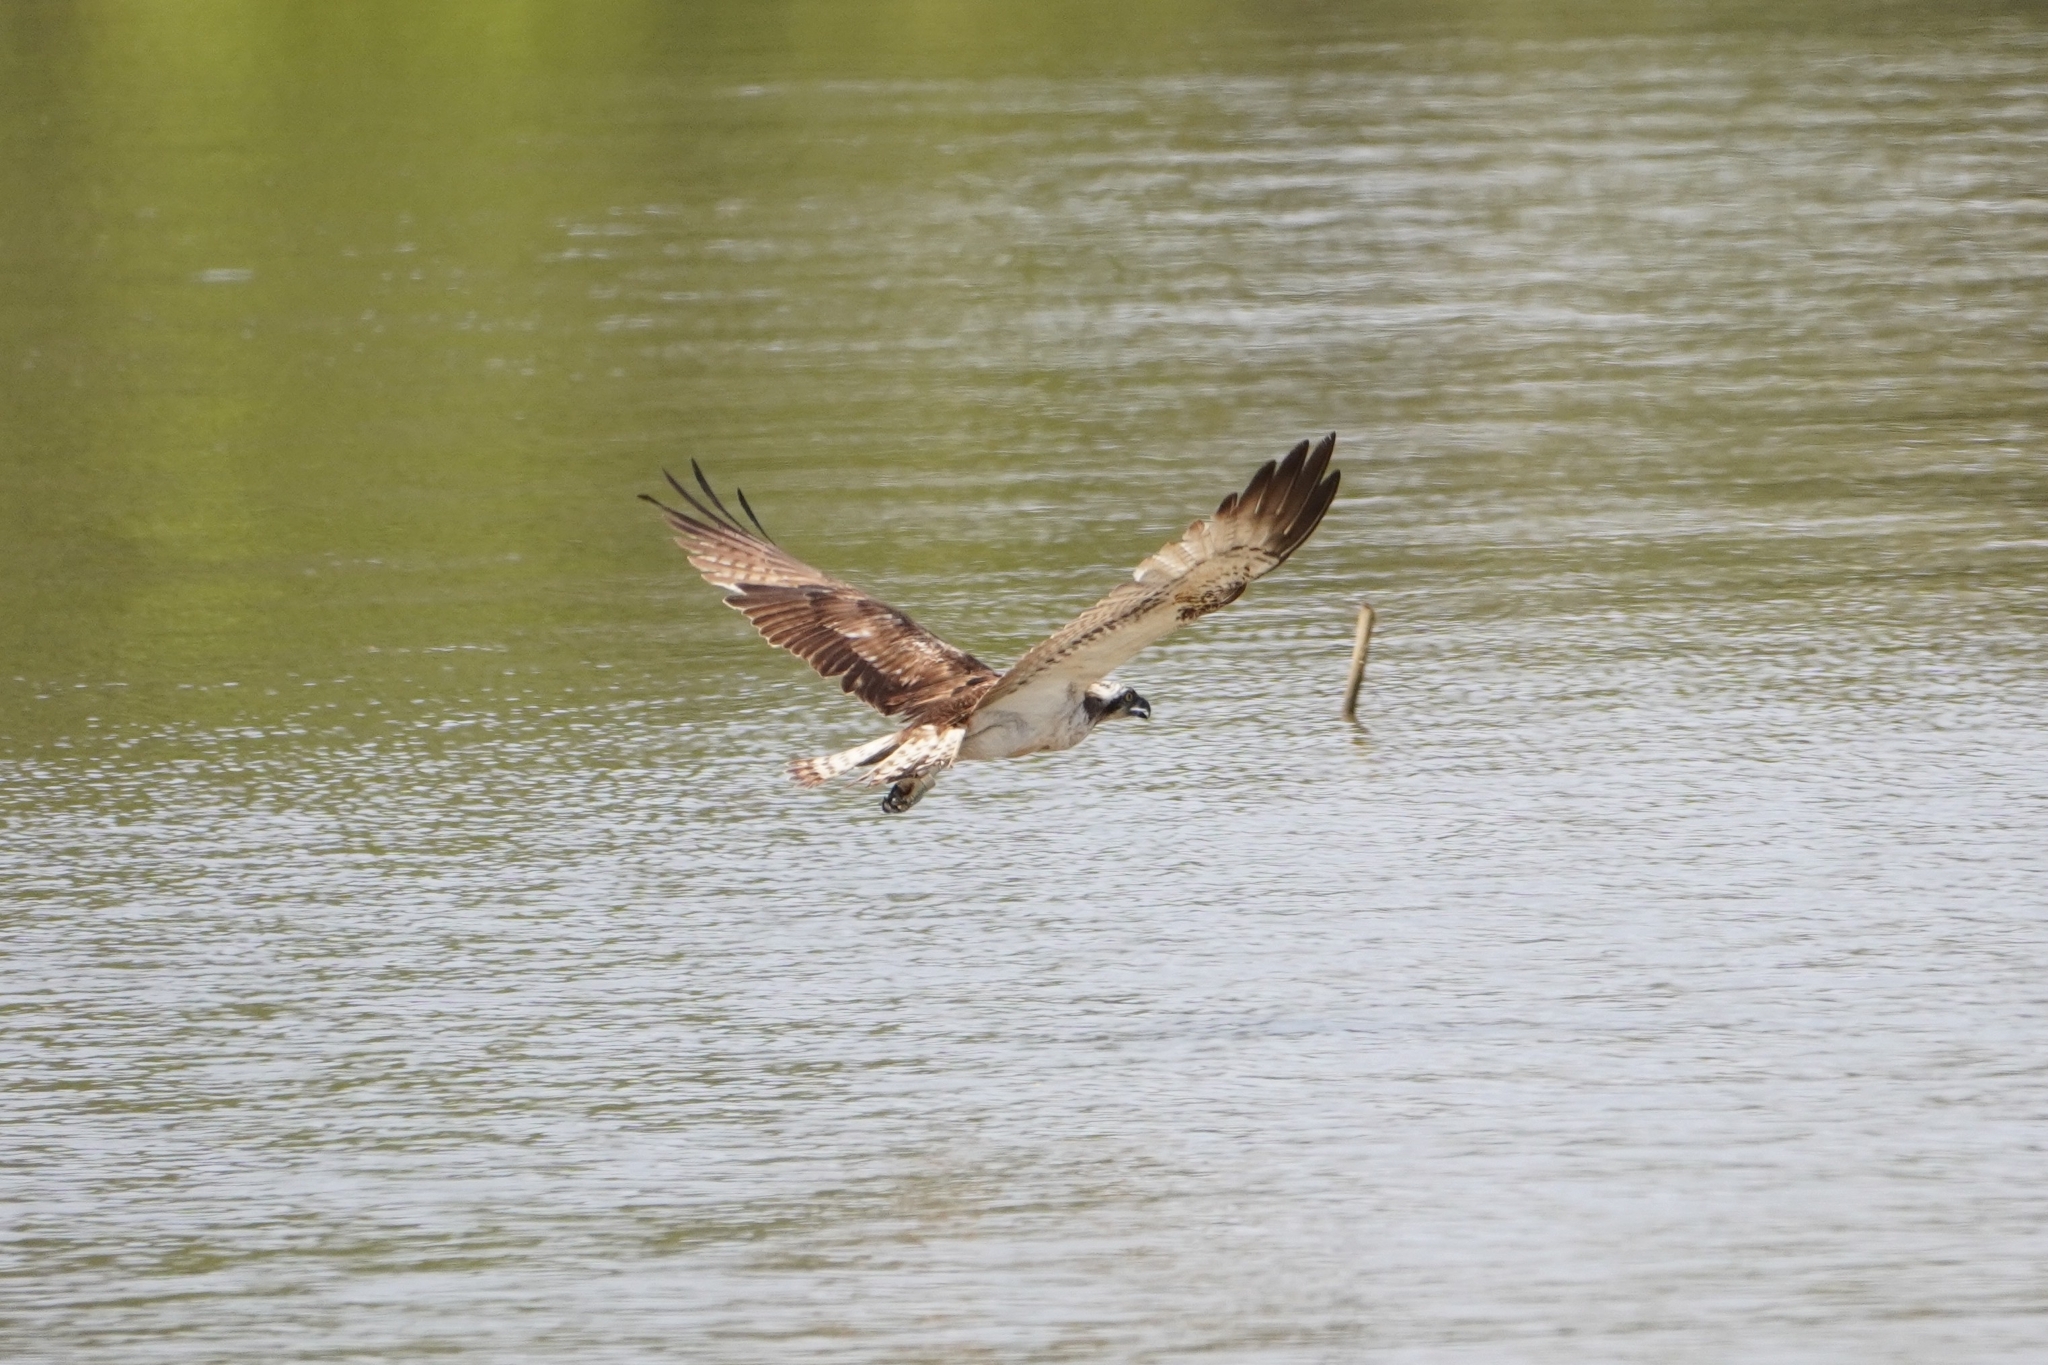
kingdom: Animalia
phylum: Chordata
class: Aves
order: Accipitriformes
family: Pandionidae
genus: Pandion
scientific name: Pandion haliaetus
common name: Osprey
